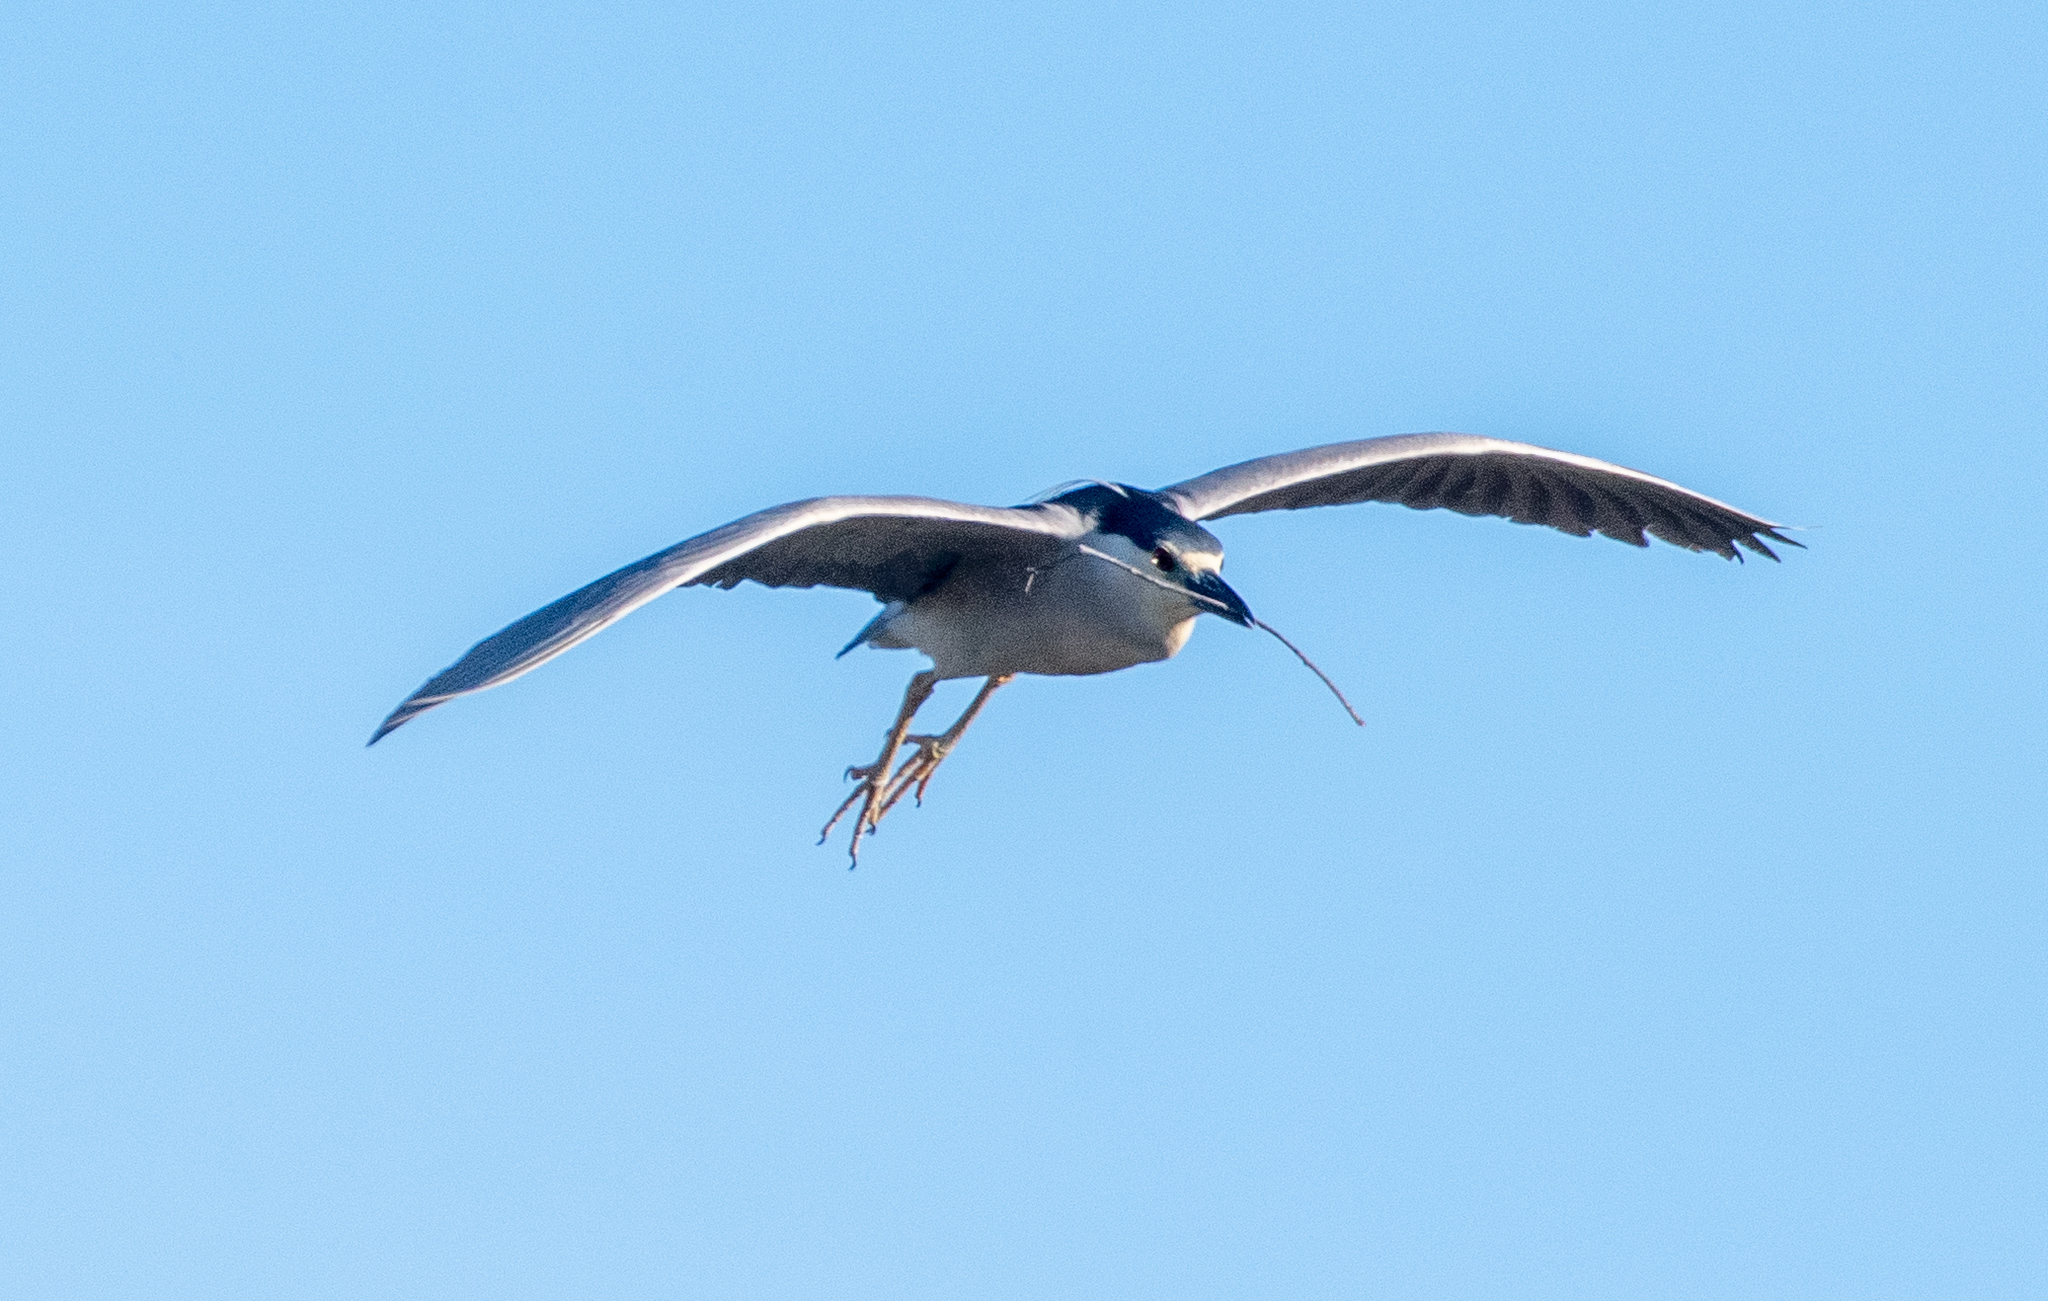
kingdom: Animalia
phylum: Chordata
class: Aves
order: Pelecaniformes
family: Ardeidae
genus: Nycticorax
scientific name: Nycticorax nycticorax
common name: Black-crowned night heron
